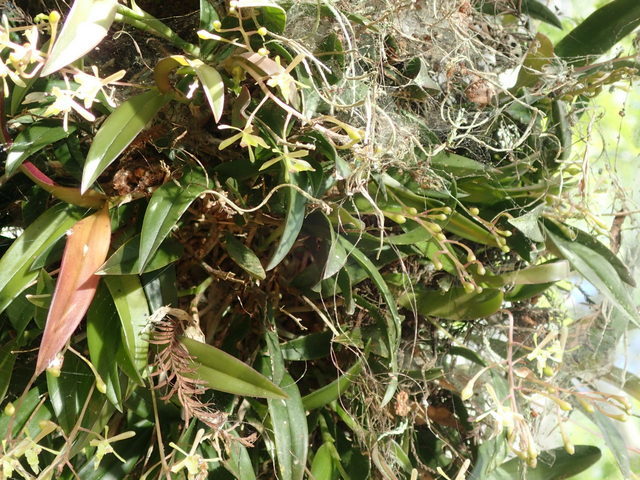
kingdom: Plantae
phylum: Tracheophyta
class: Liliopsida
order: Asparagales
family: Orchidaceae
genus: Epidendrum
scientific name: Epidendrum conopseum
